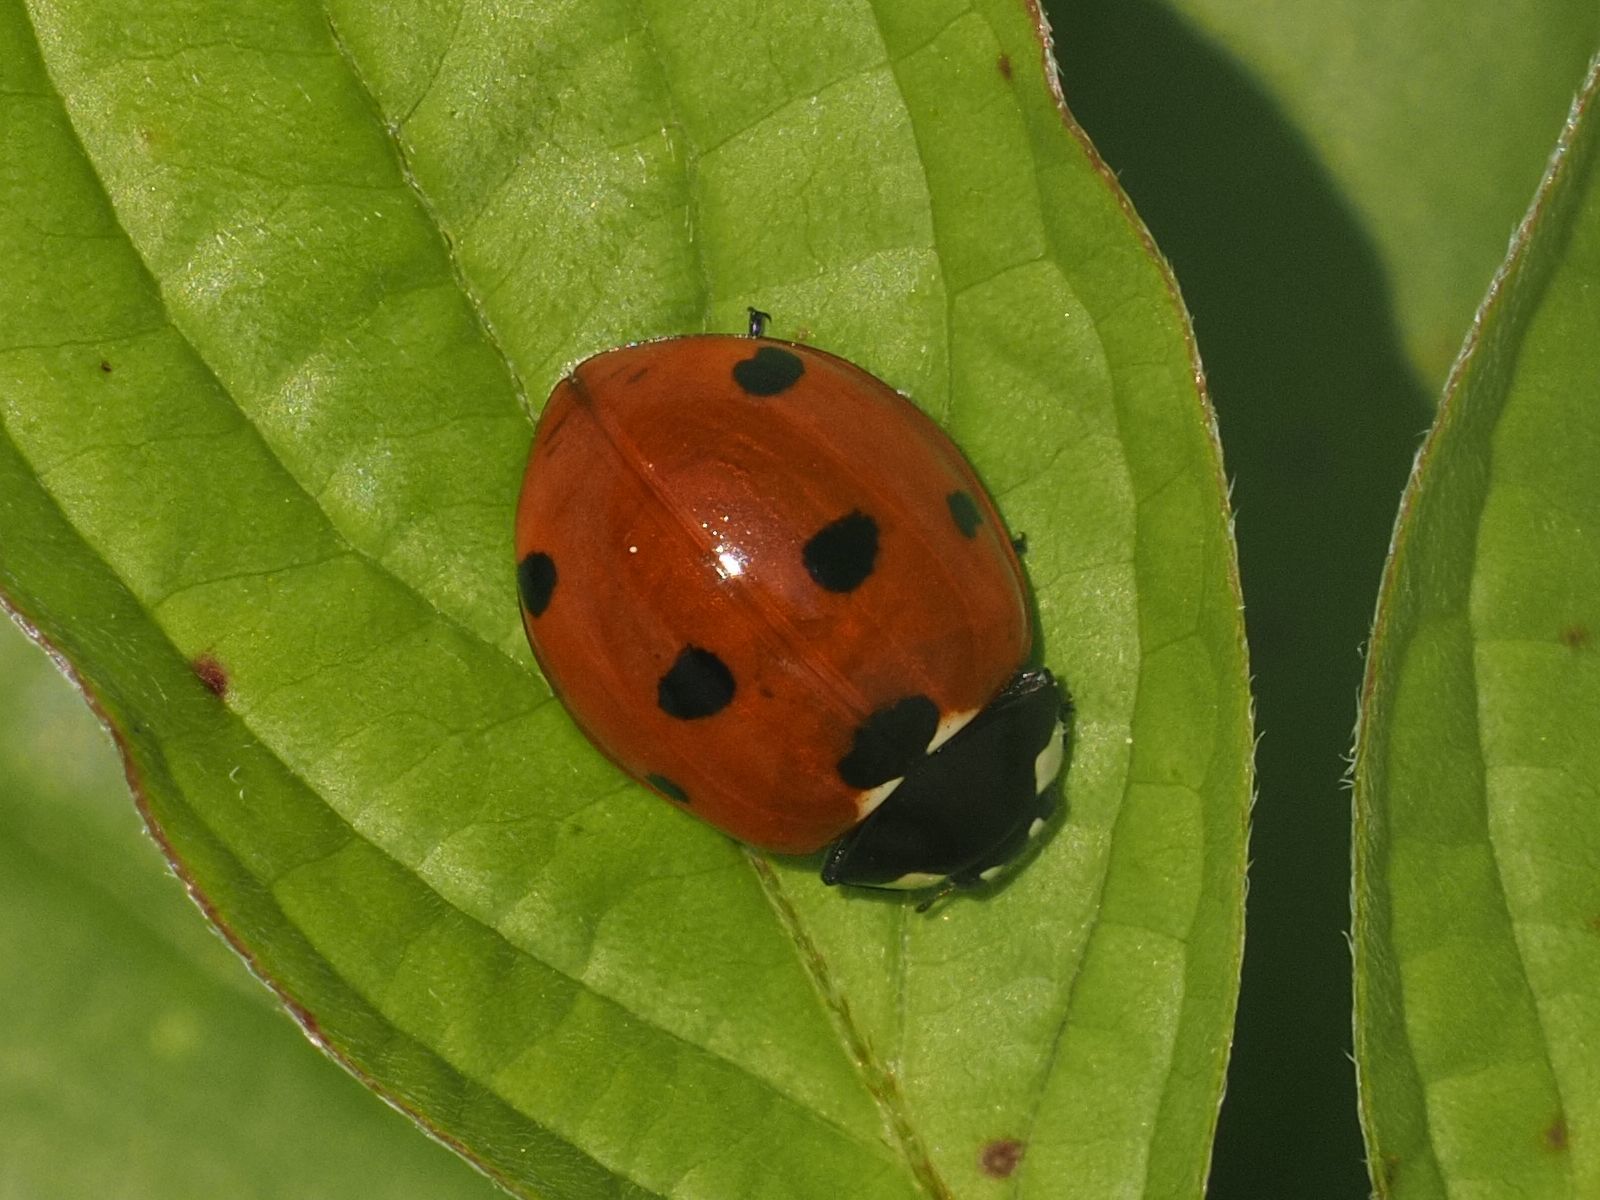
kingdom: Animalia
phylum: Arthropoda
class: Insecta
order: Coleoptera
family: Coccinellidae
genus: Coccinella
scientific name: Coccinella septempunctata
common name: Sevenspotted lady beetle
